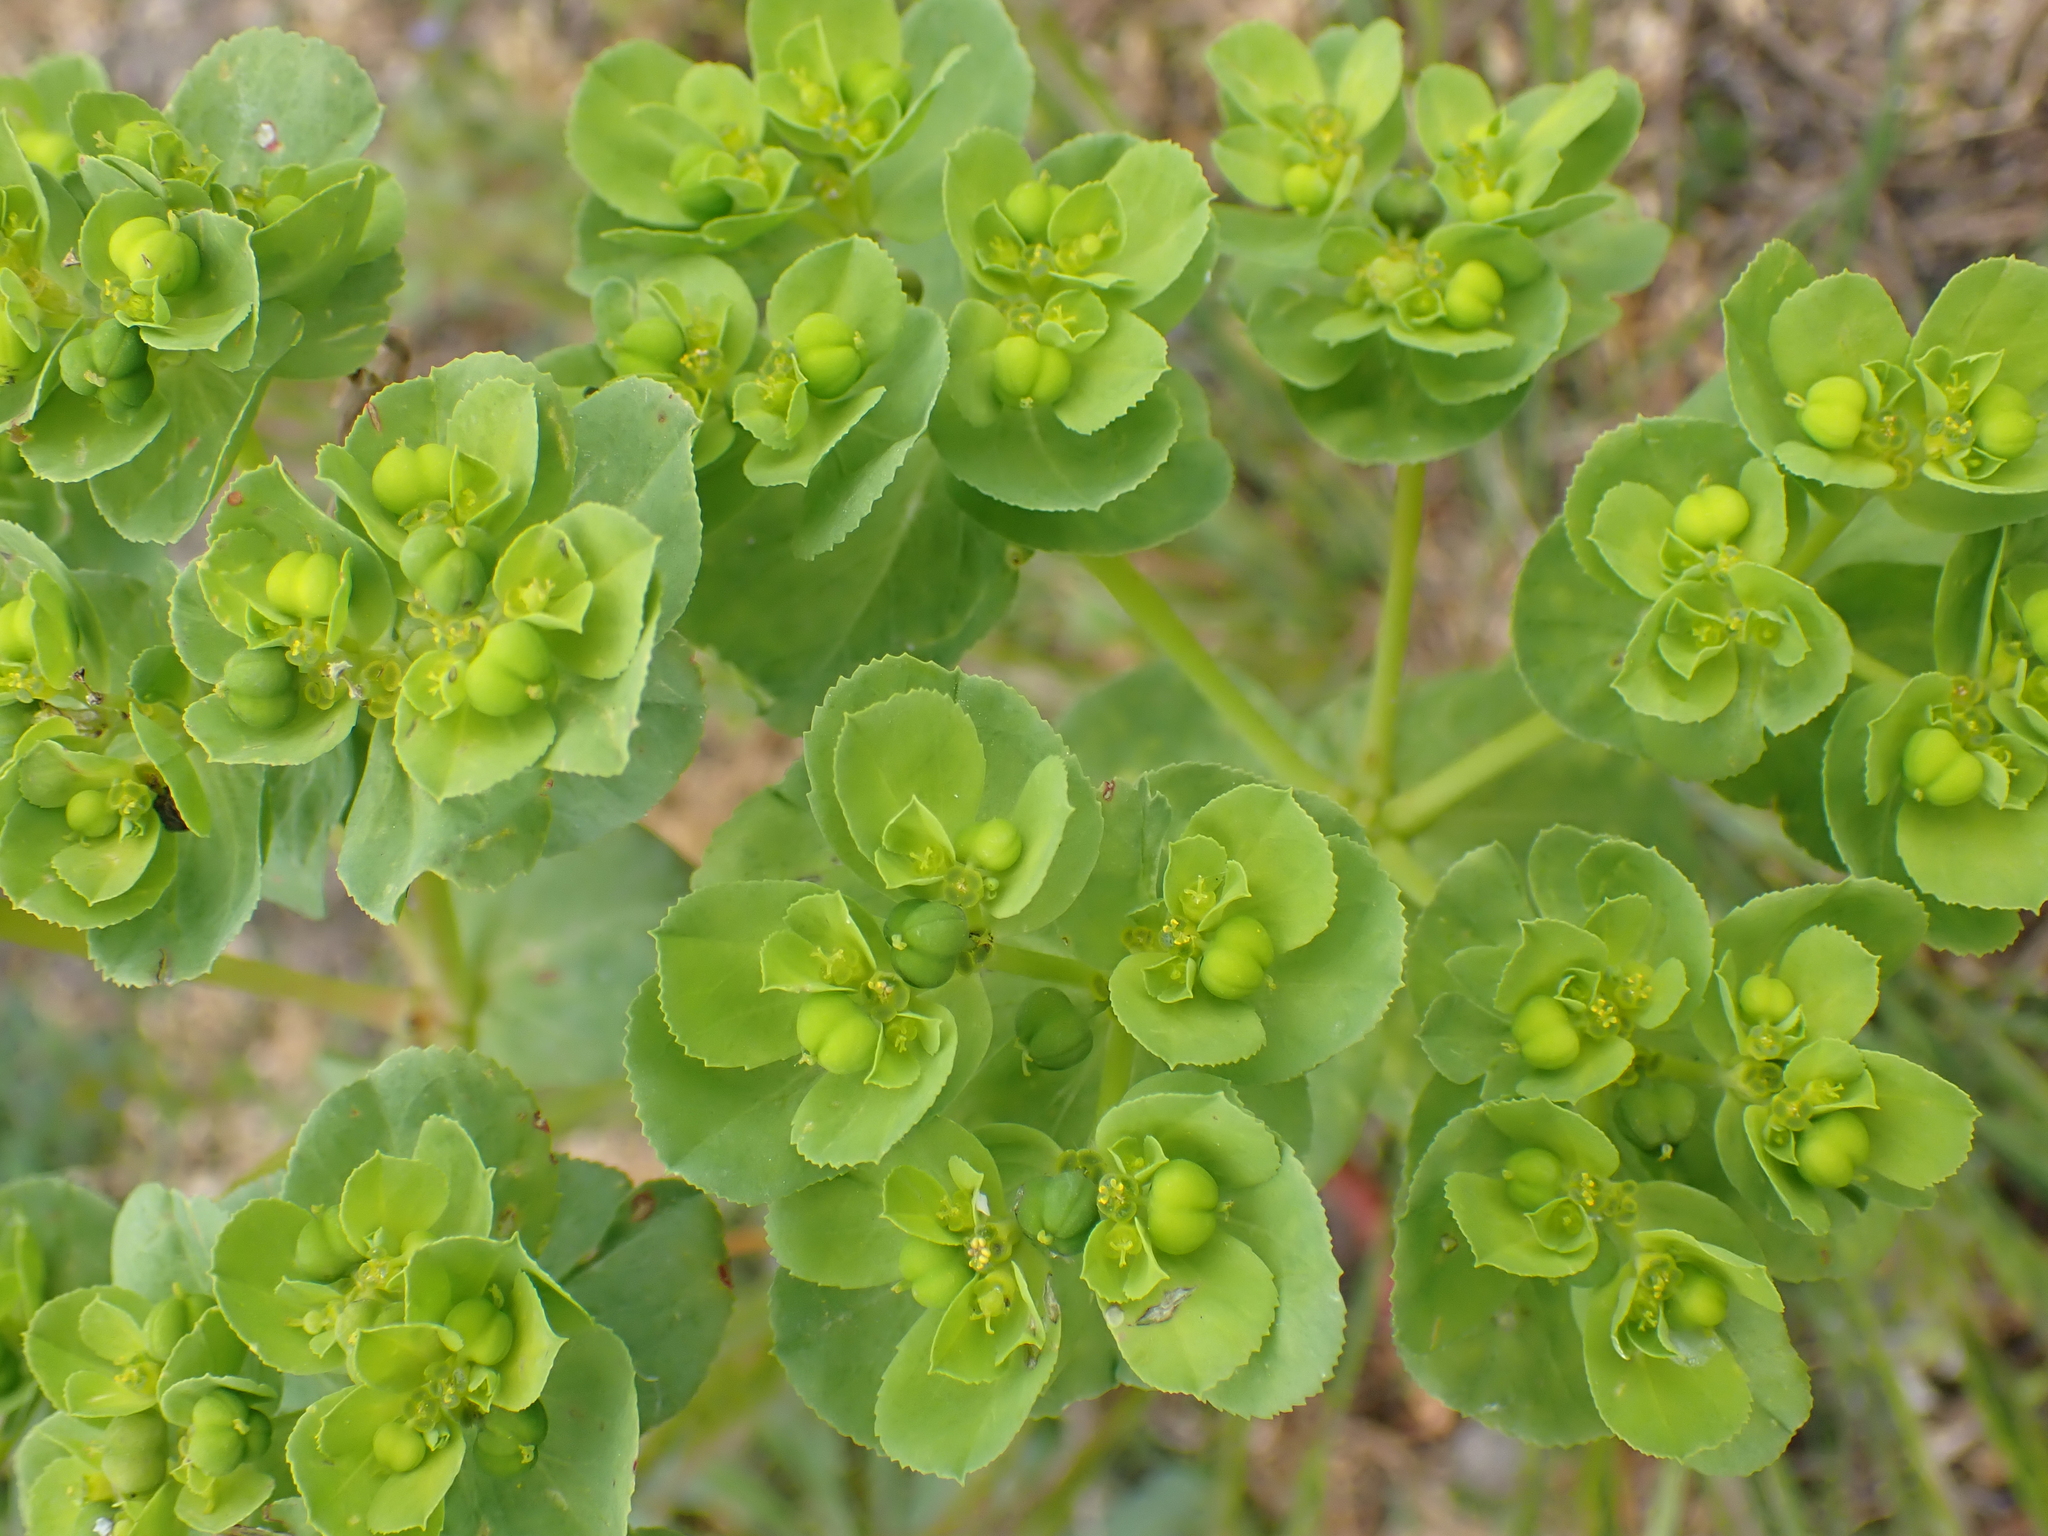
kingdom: Plantae
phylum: Tracheophyta
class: Magnoliopsida
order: Malpighiales
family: Euphorbiaceae
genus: Euphorbia
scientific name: Euphorbia helioscopia
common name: Sun spurge
